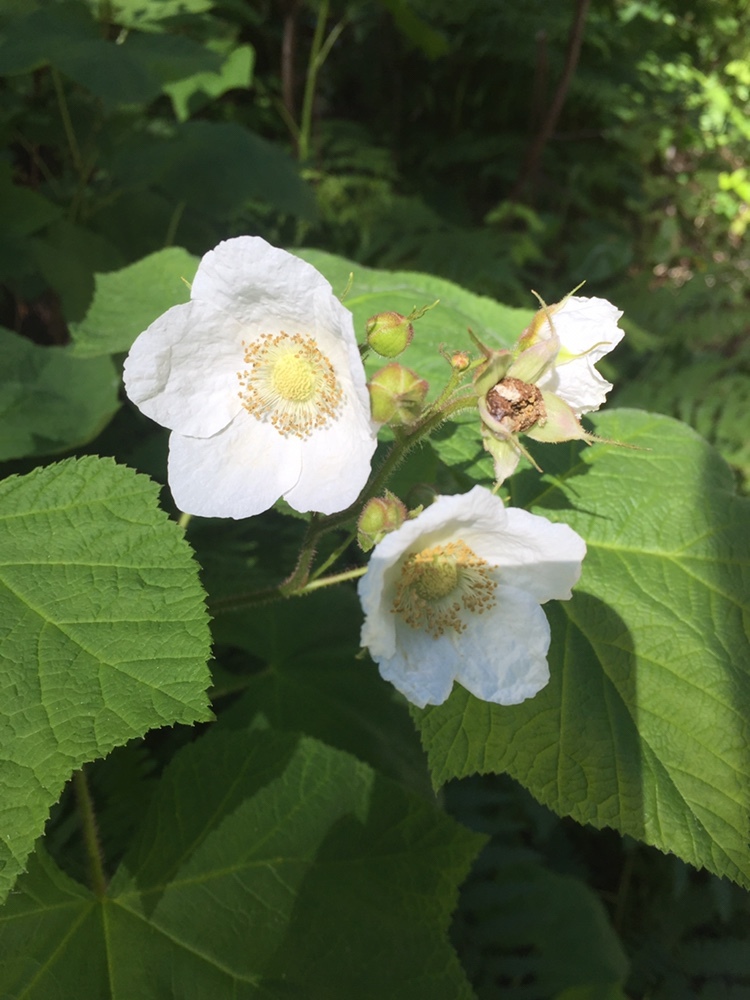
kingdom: Plantae
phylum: Tracheophyta
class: Magnoliopsida
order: Rosales
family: Rosaceae
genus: Rubus
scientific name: Rubus parviflorus
